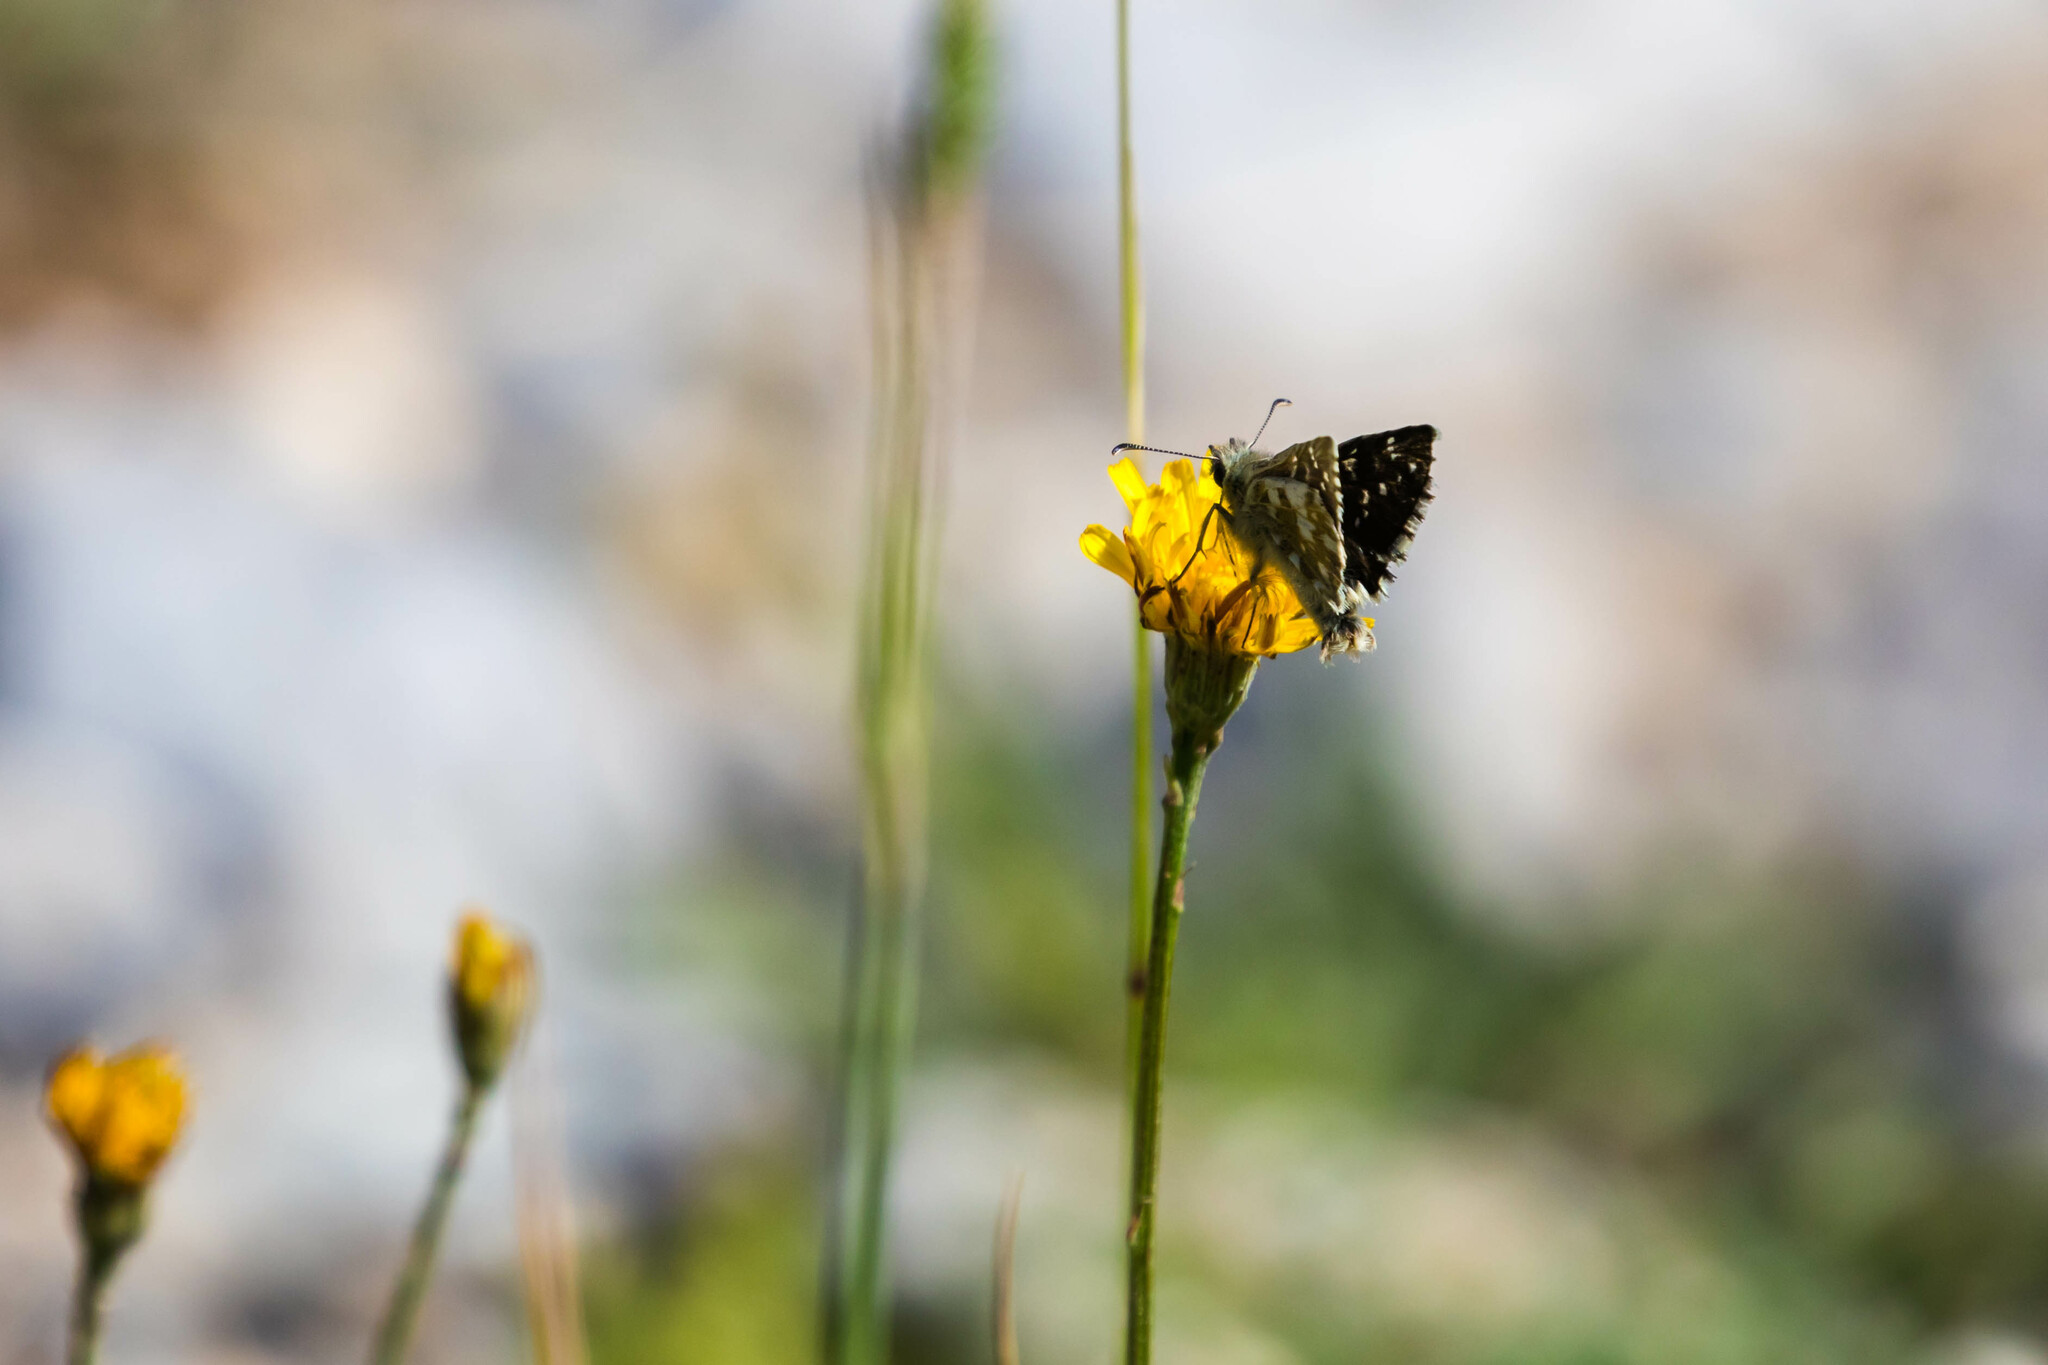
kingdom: Animalia
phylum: Arthropoda
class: Insecta
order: Lepidoptera
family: Hesperiidae
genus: Pyrgus
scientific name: Pyrgus alveus
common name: Large grizzled skipper
